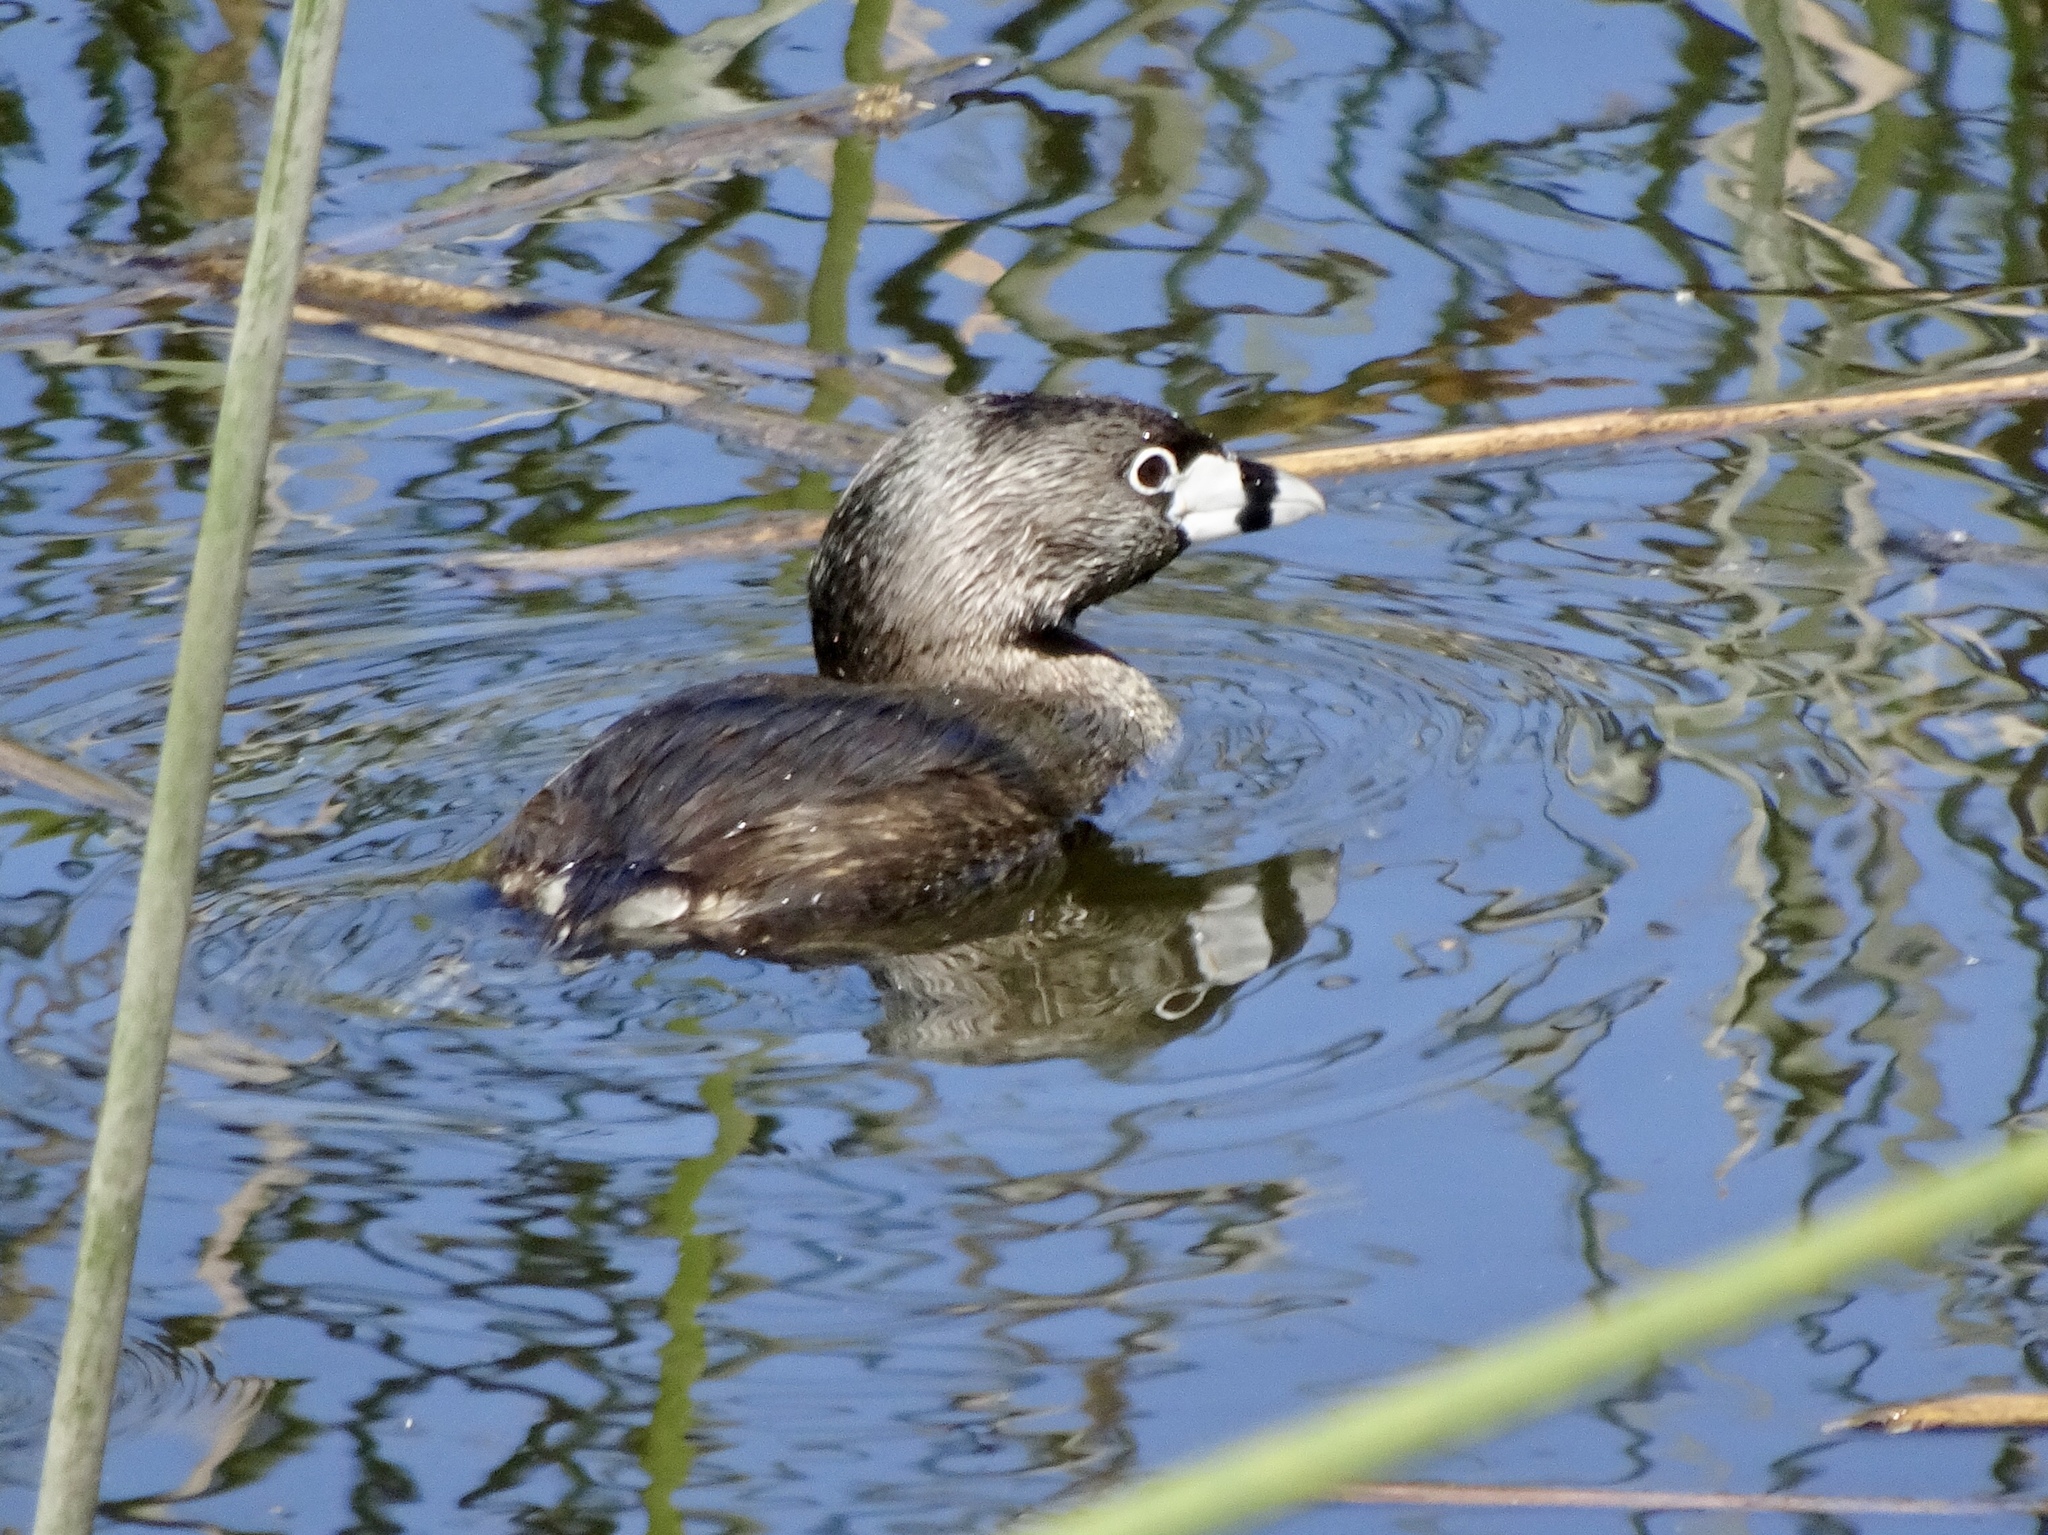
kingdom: Animalia
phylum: Chordata
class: Aves
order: Podicipediformes
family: Podicipedidae
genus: Podilymbus
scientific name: Podilymbus podiceps
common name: Pied-billed grebe
